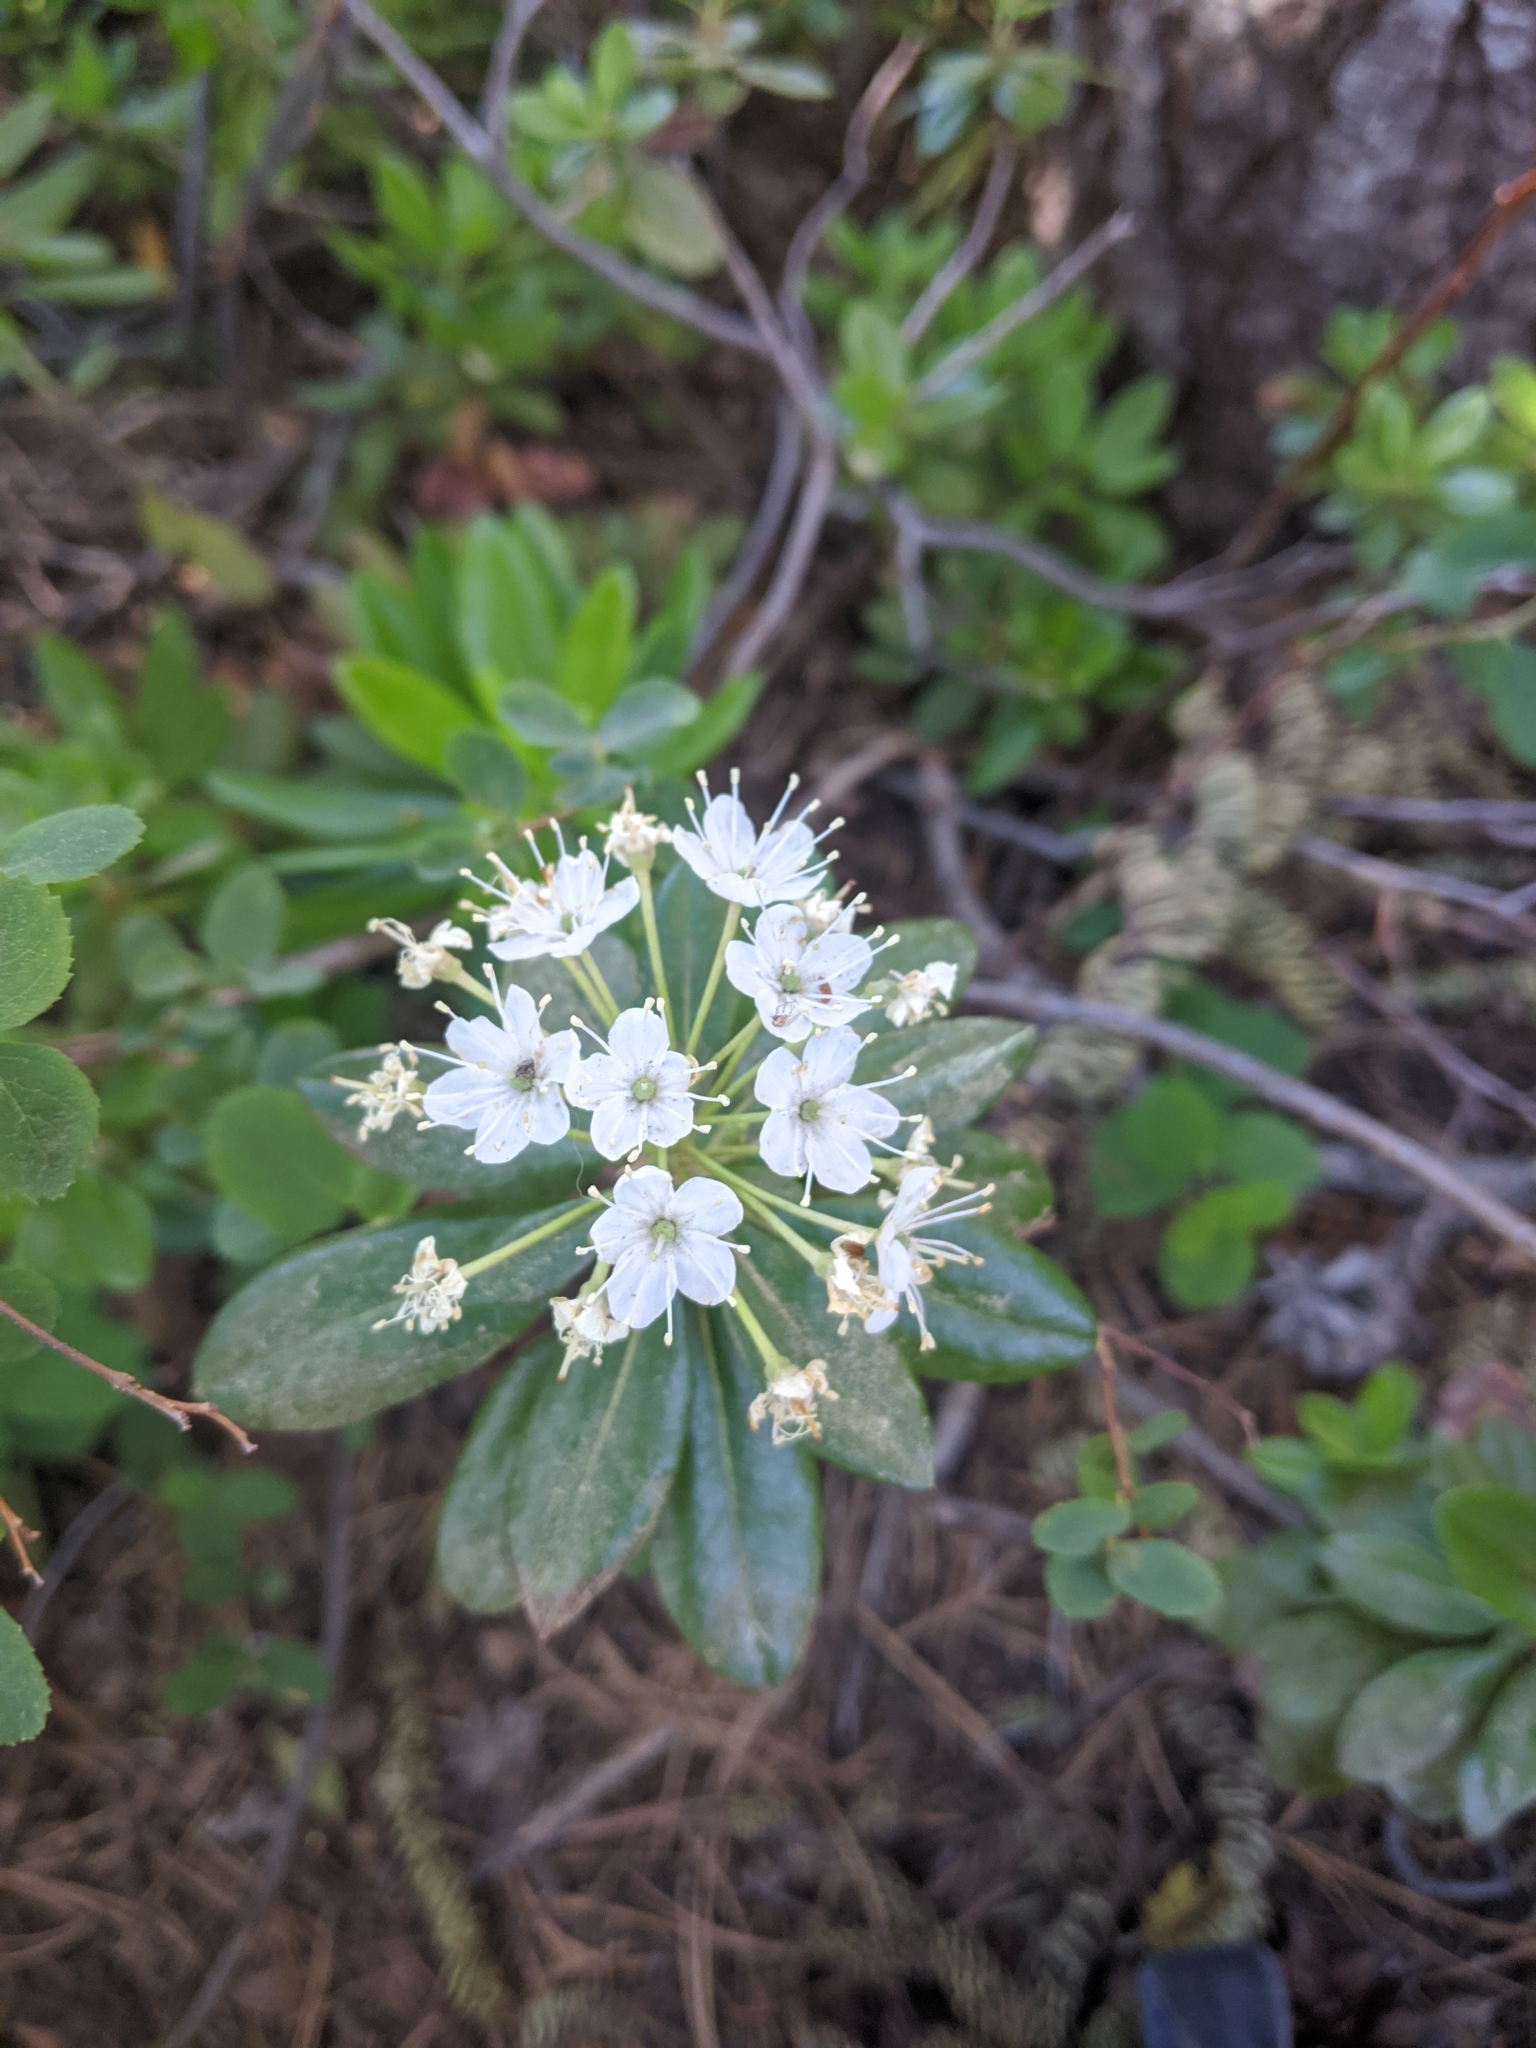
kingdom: Plantae
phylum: Tracheophyta
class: Magnoliopsida
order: Ericales
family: Ericaceae
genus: Rhododendron
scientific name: Rhododendron columbianum
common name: Western labrador tea
